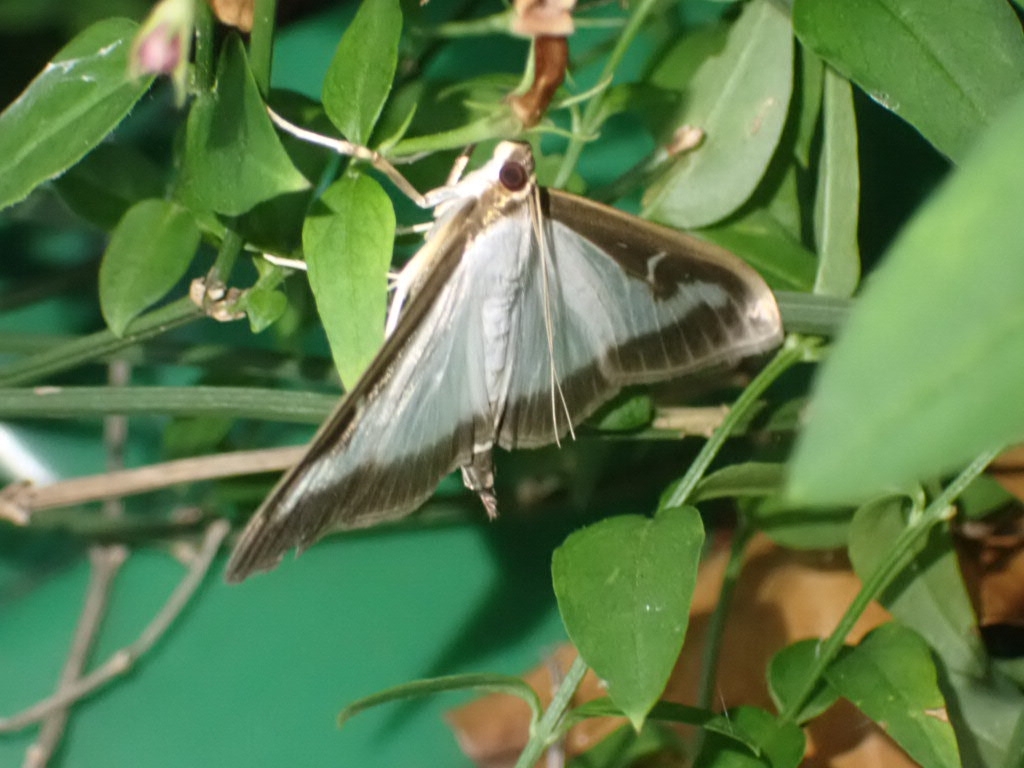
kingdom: Animalia
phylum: Arthropoda
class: Insecta
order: Lepidoptera
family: Crambidae
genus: Cydalima
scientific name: Cydalima perspectalis
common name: Box tree moth
